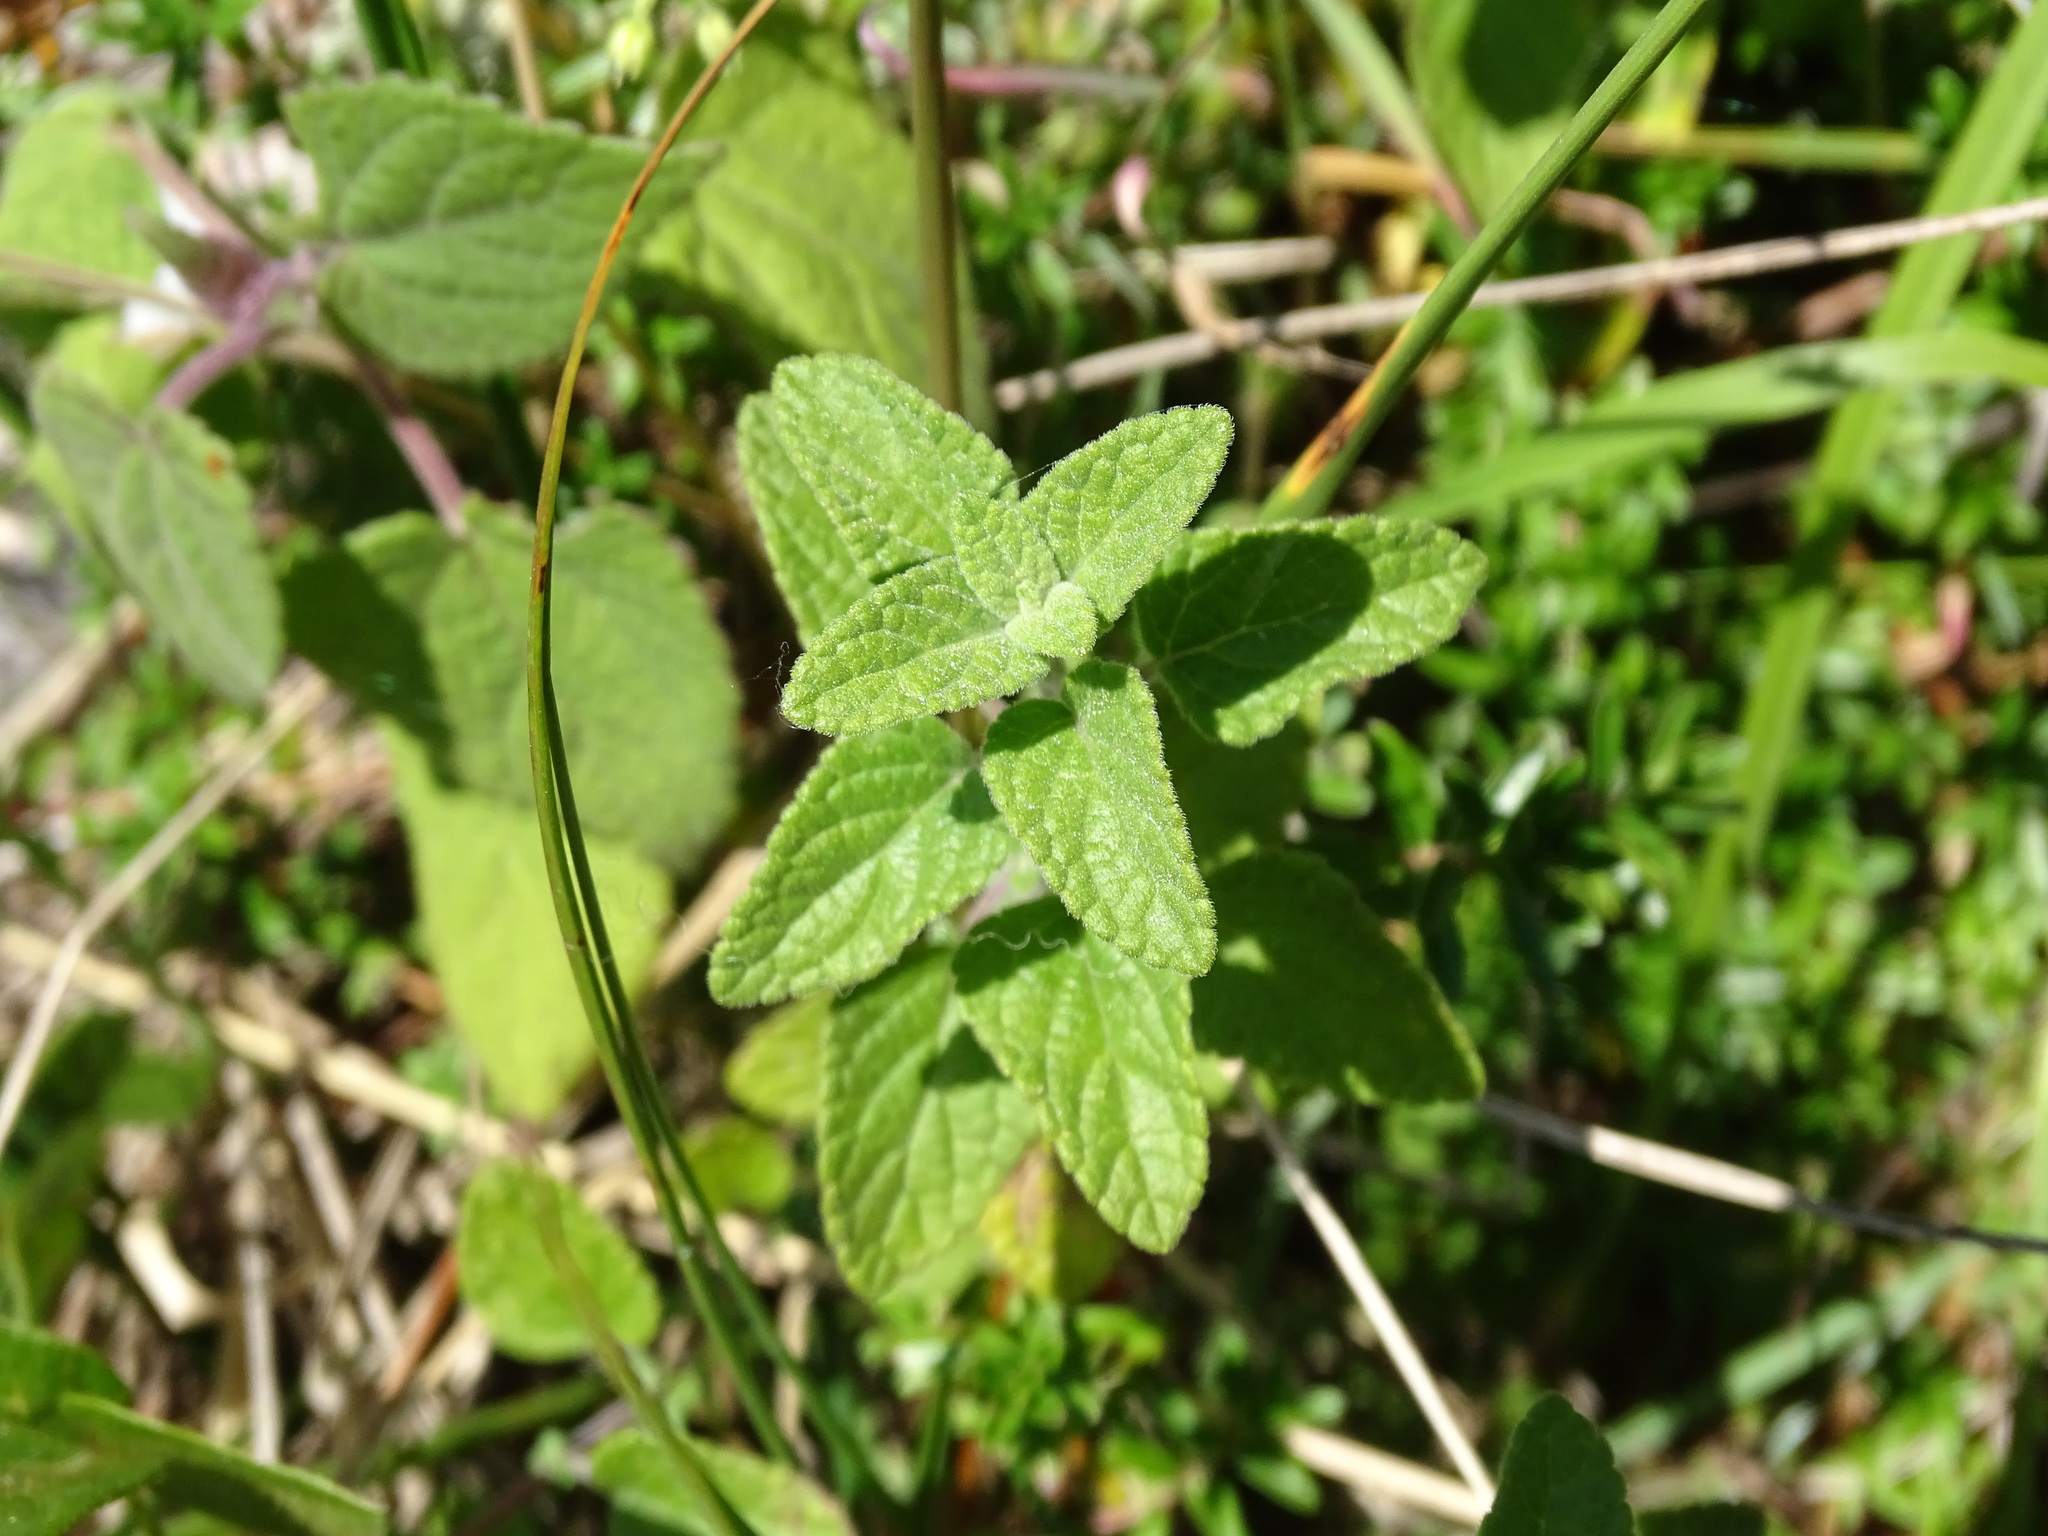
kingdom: Plantae
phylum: Tracheophyta
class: Magnoliopsida
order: Lamiales
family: Lamiaceae
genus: Salvia
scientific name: Salvia microphylla
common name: Baby sage
